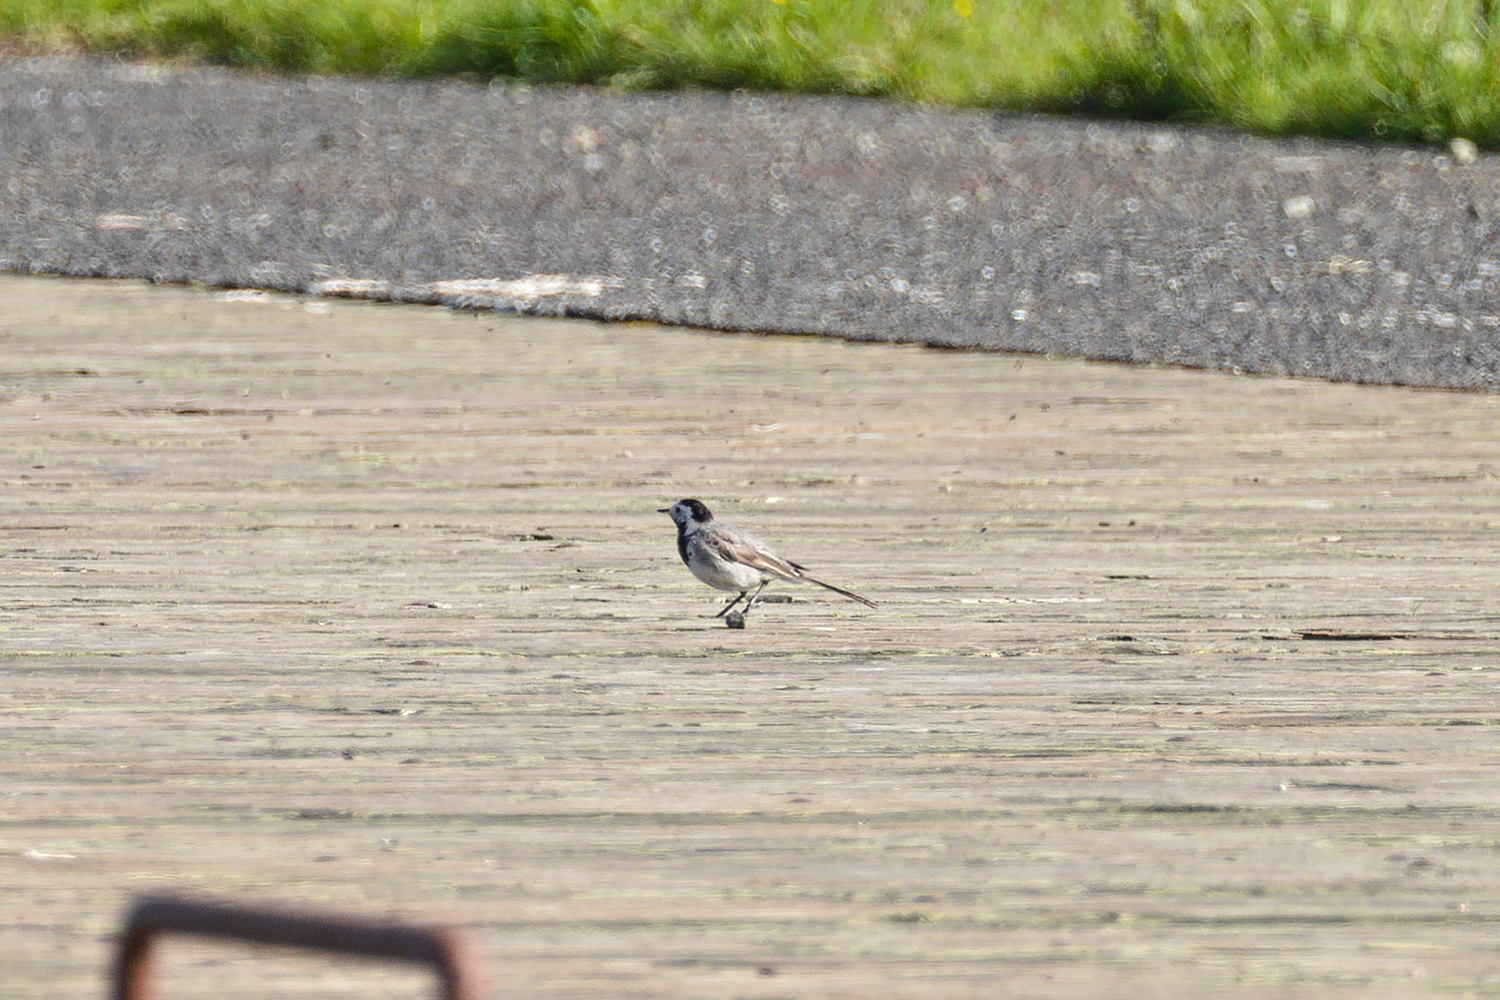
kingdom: Animalia
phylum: Chordata
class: Aves
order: Passeriformes
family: Motacillidae
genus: Motacilla
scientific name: Motacilla alba
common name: White wagtail
